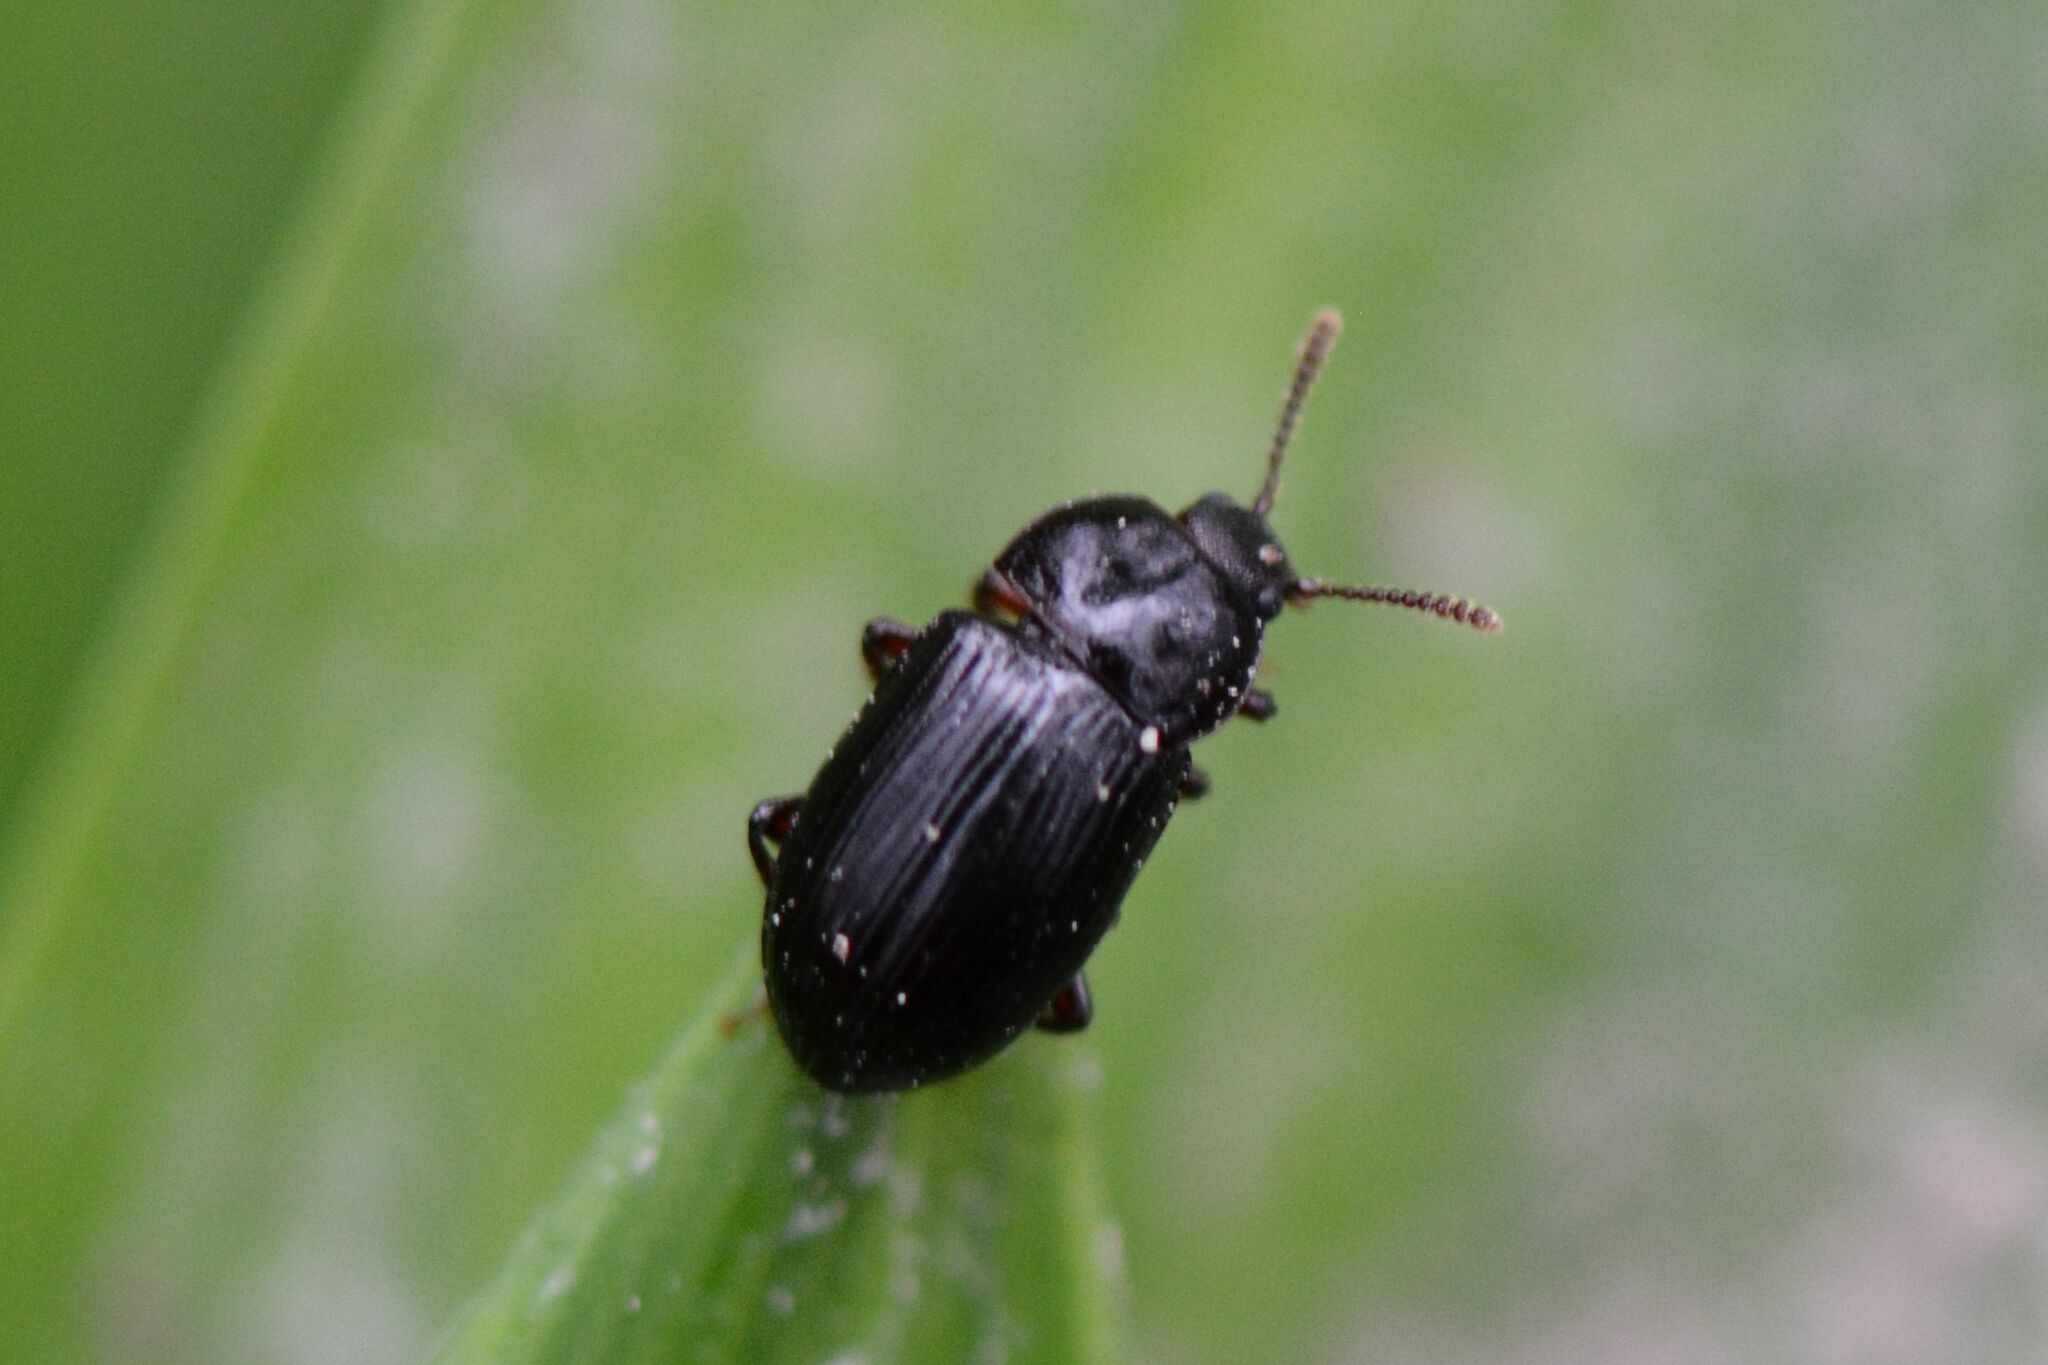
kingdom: Animalia
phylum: Arthropoda
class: Insecta
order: Coleoptera
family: Agyrtidae
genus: Agyrtes
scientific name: Agyrtes bicolor
